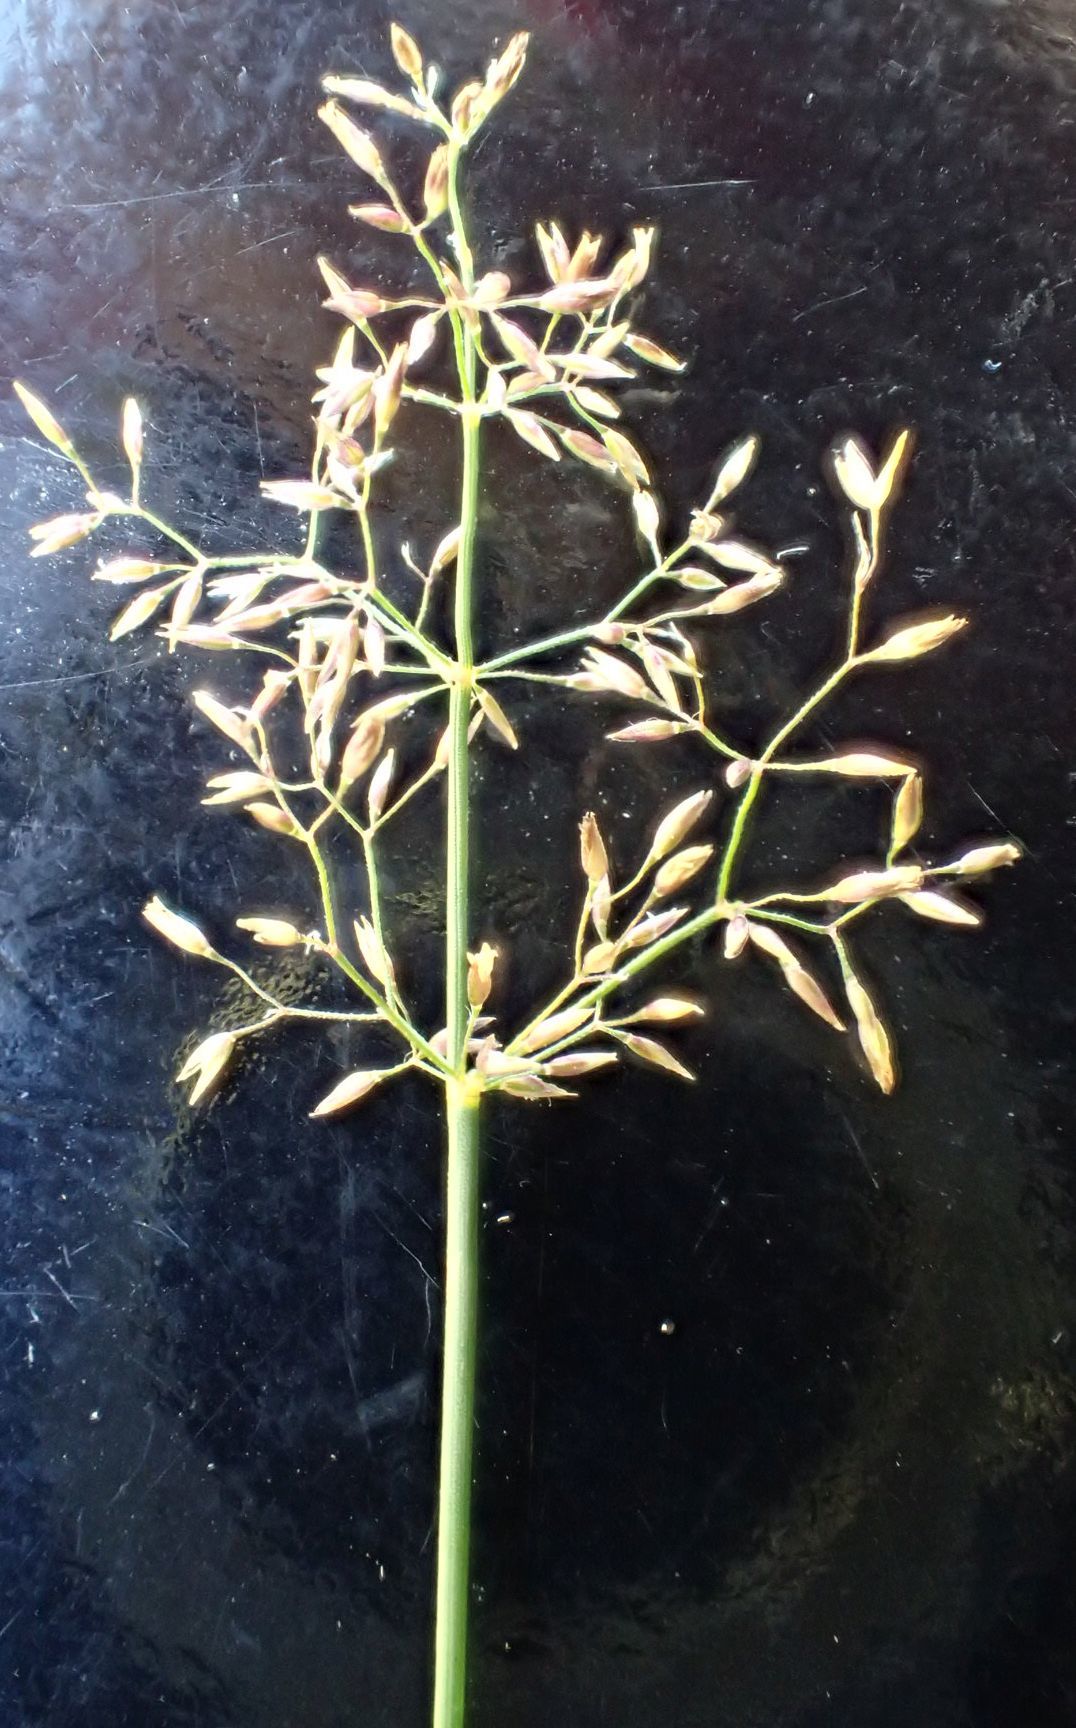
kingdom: Plantae
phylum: Tracheophyta
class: Liliopsida
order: Poales
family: Poaceae
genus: Agrostis
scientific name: Agrostis capillaris
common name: Colonial bentgrass
